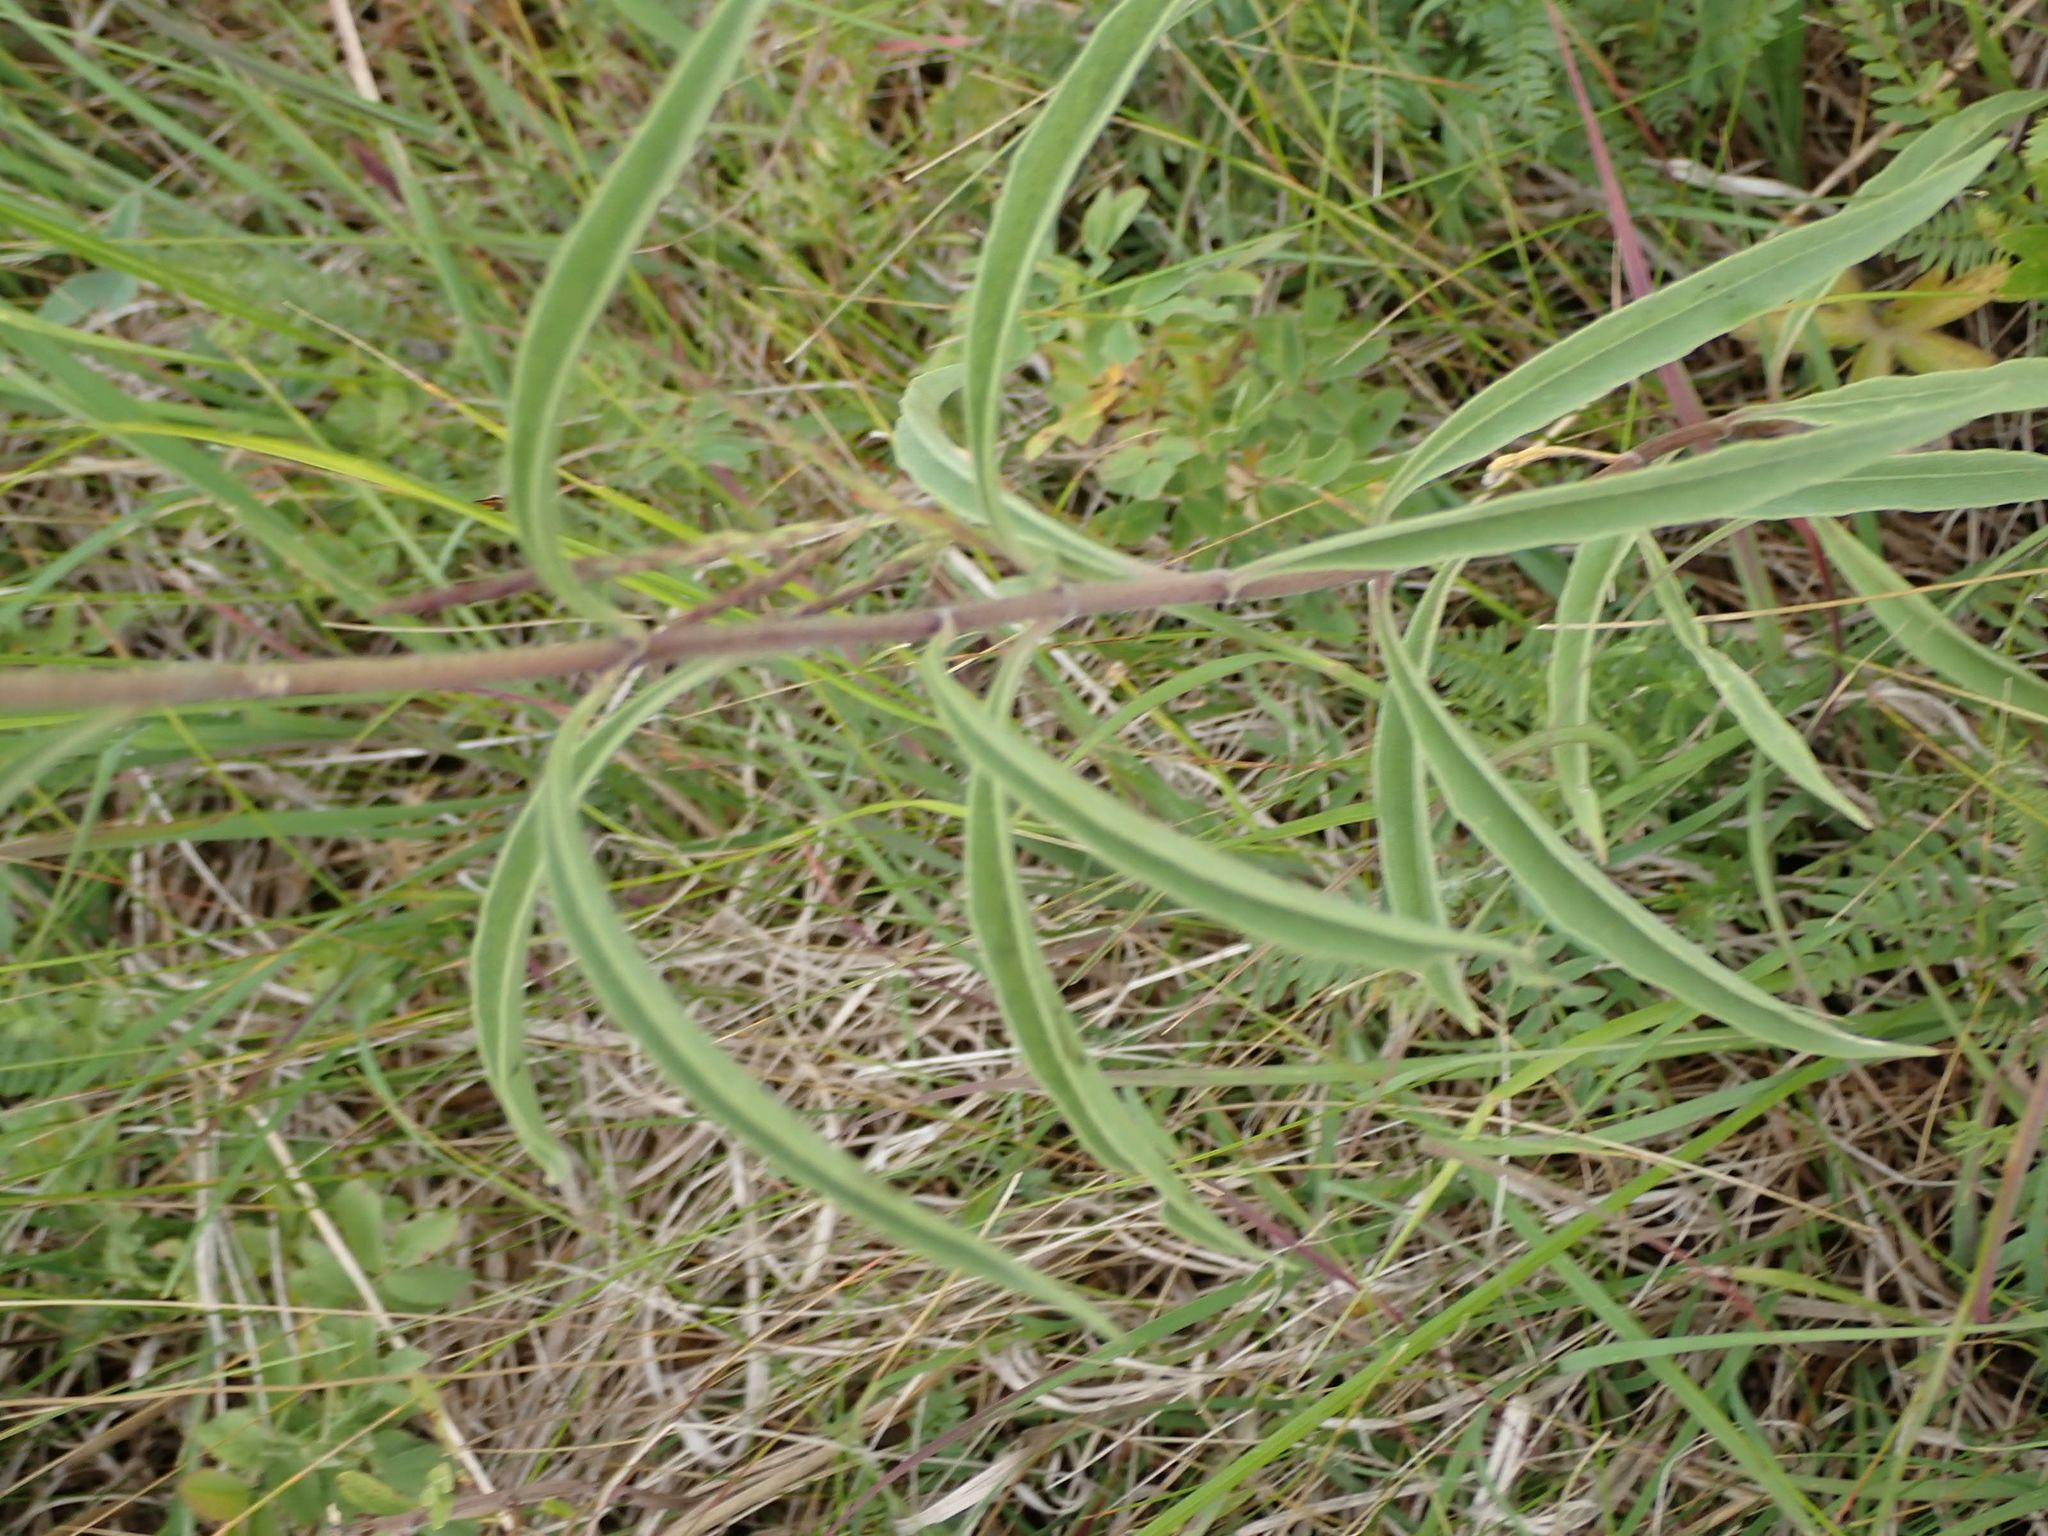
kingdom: Plantae
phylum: Tracheophyta
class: Magnoliopsida
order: Asterales
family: Asteraceae
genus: Helianthus
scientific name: Helianthus maximiliani
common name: Maximilian's sunflower
